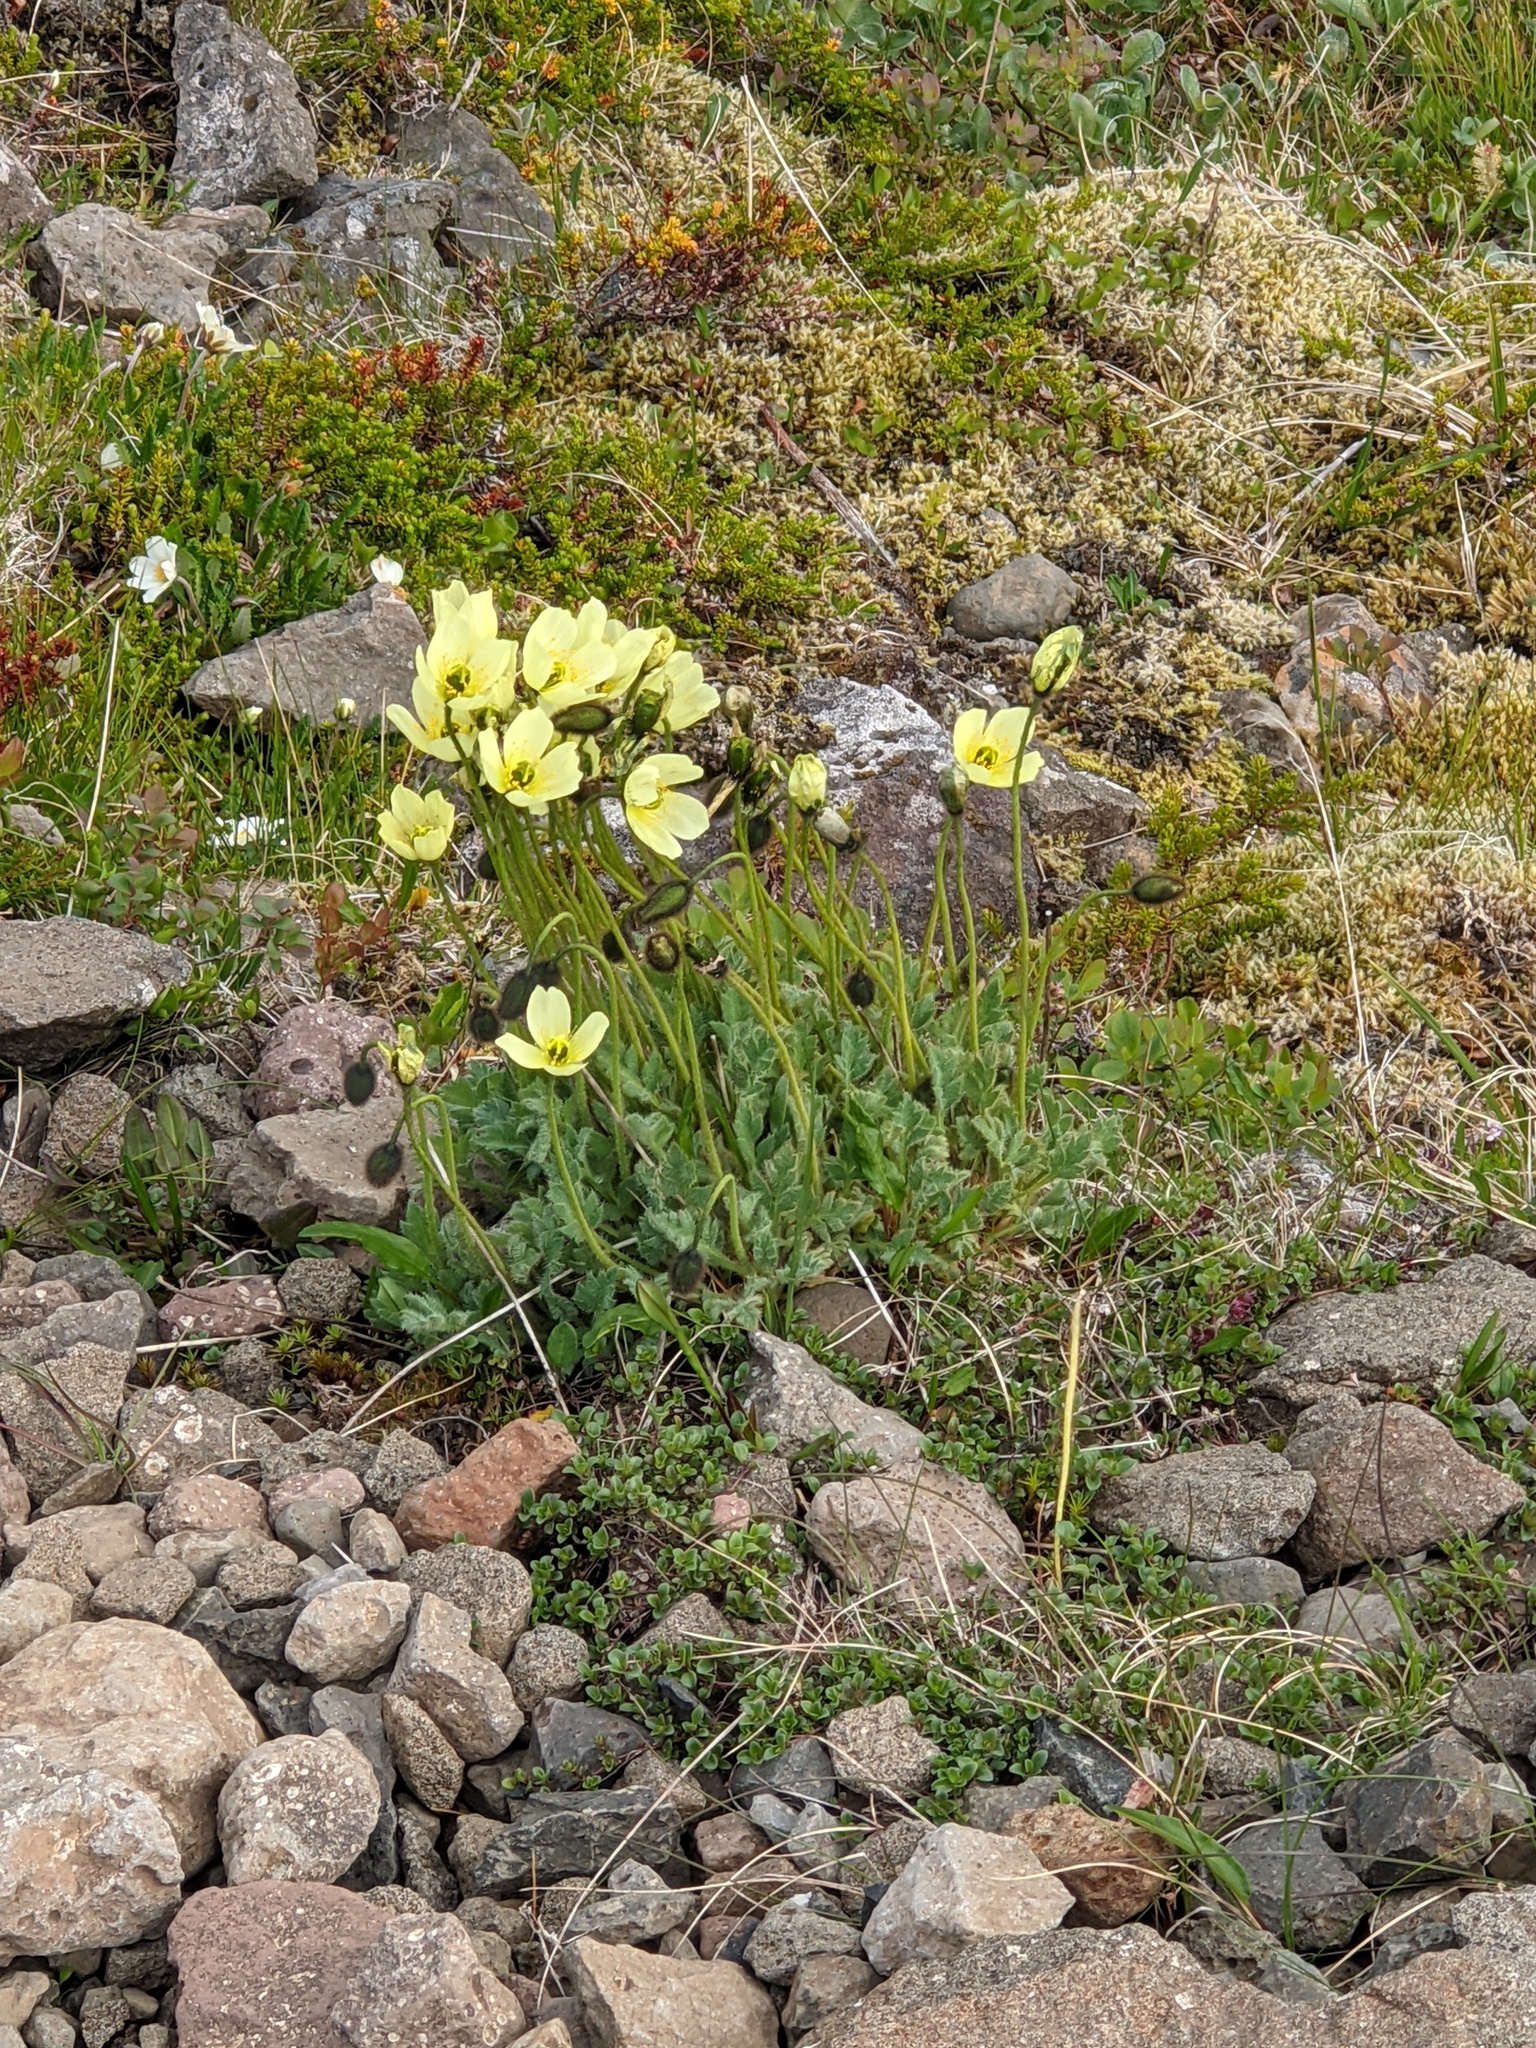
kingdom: Plantae
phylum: Tracheophyta
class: Magnoliopsida
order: Ranunculales
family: Papaveraceae
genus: Papaver
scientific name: Papaver radicatum
